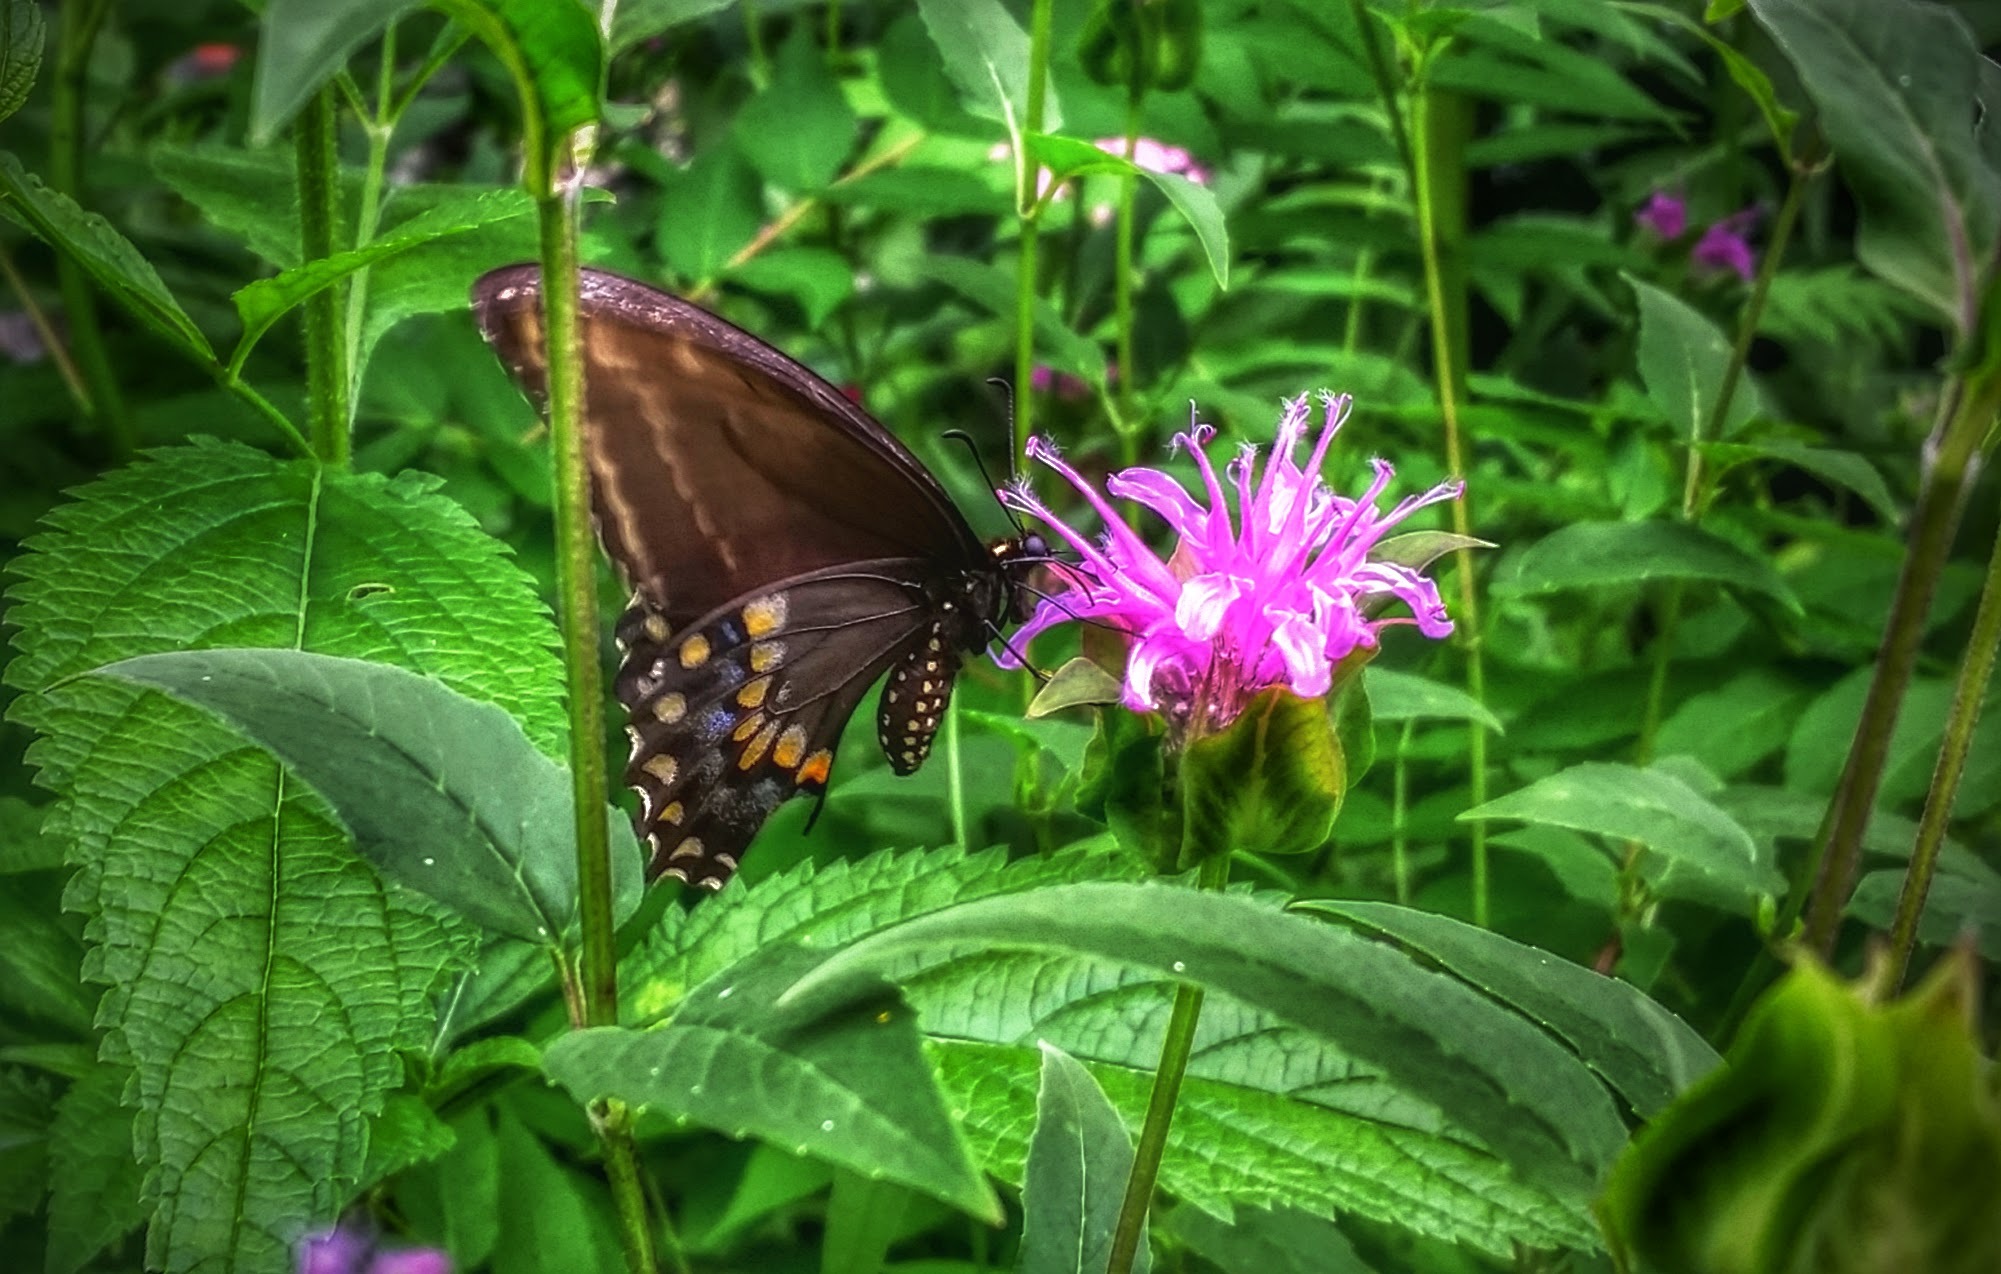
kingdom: Animalia
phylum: Arthropoda
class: Insecta
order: Lepidoptera
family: Papilionidae
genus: Papilio
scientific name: Papilio polyxenes
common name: Black swallowtail
